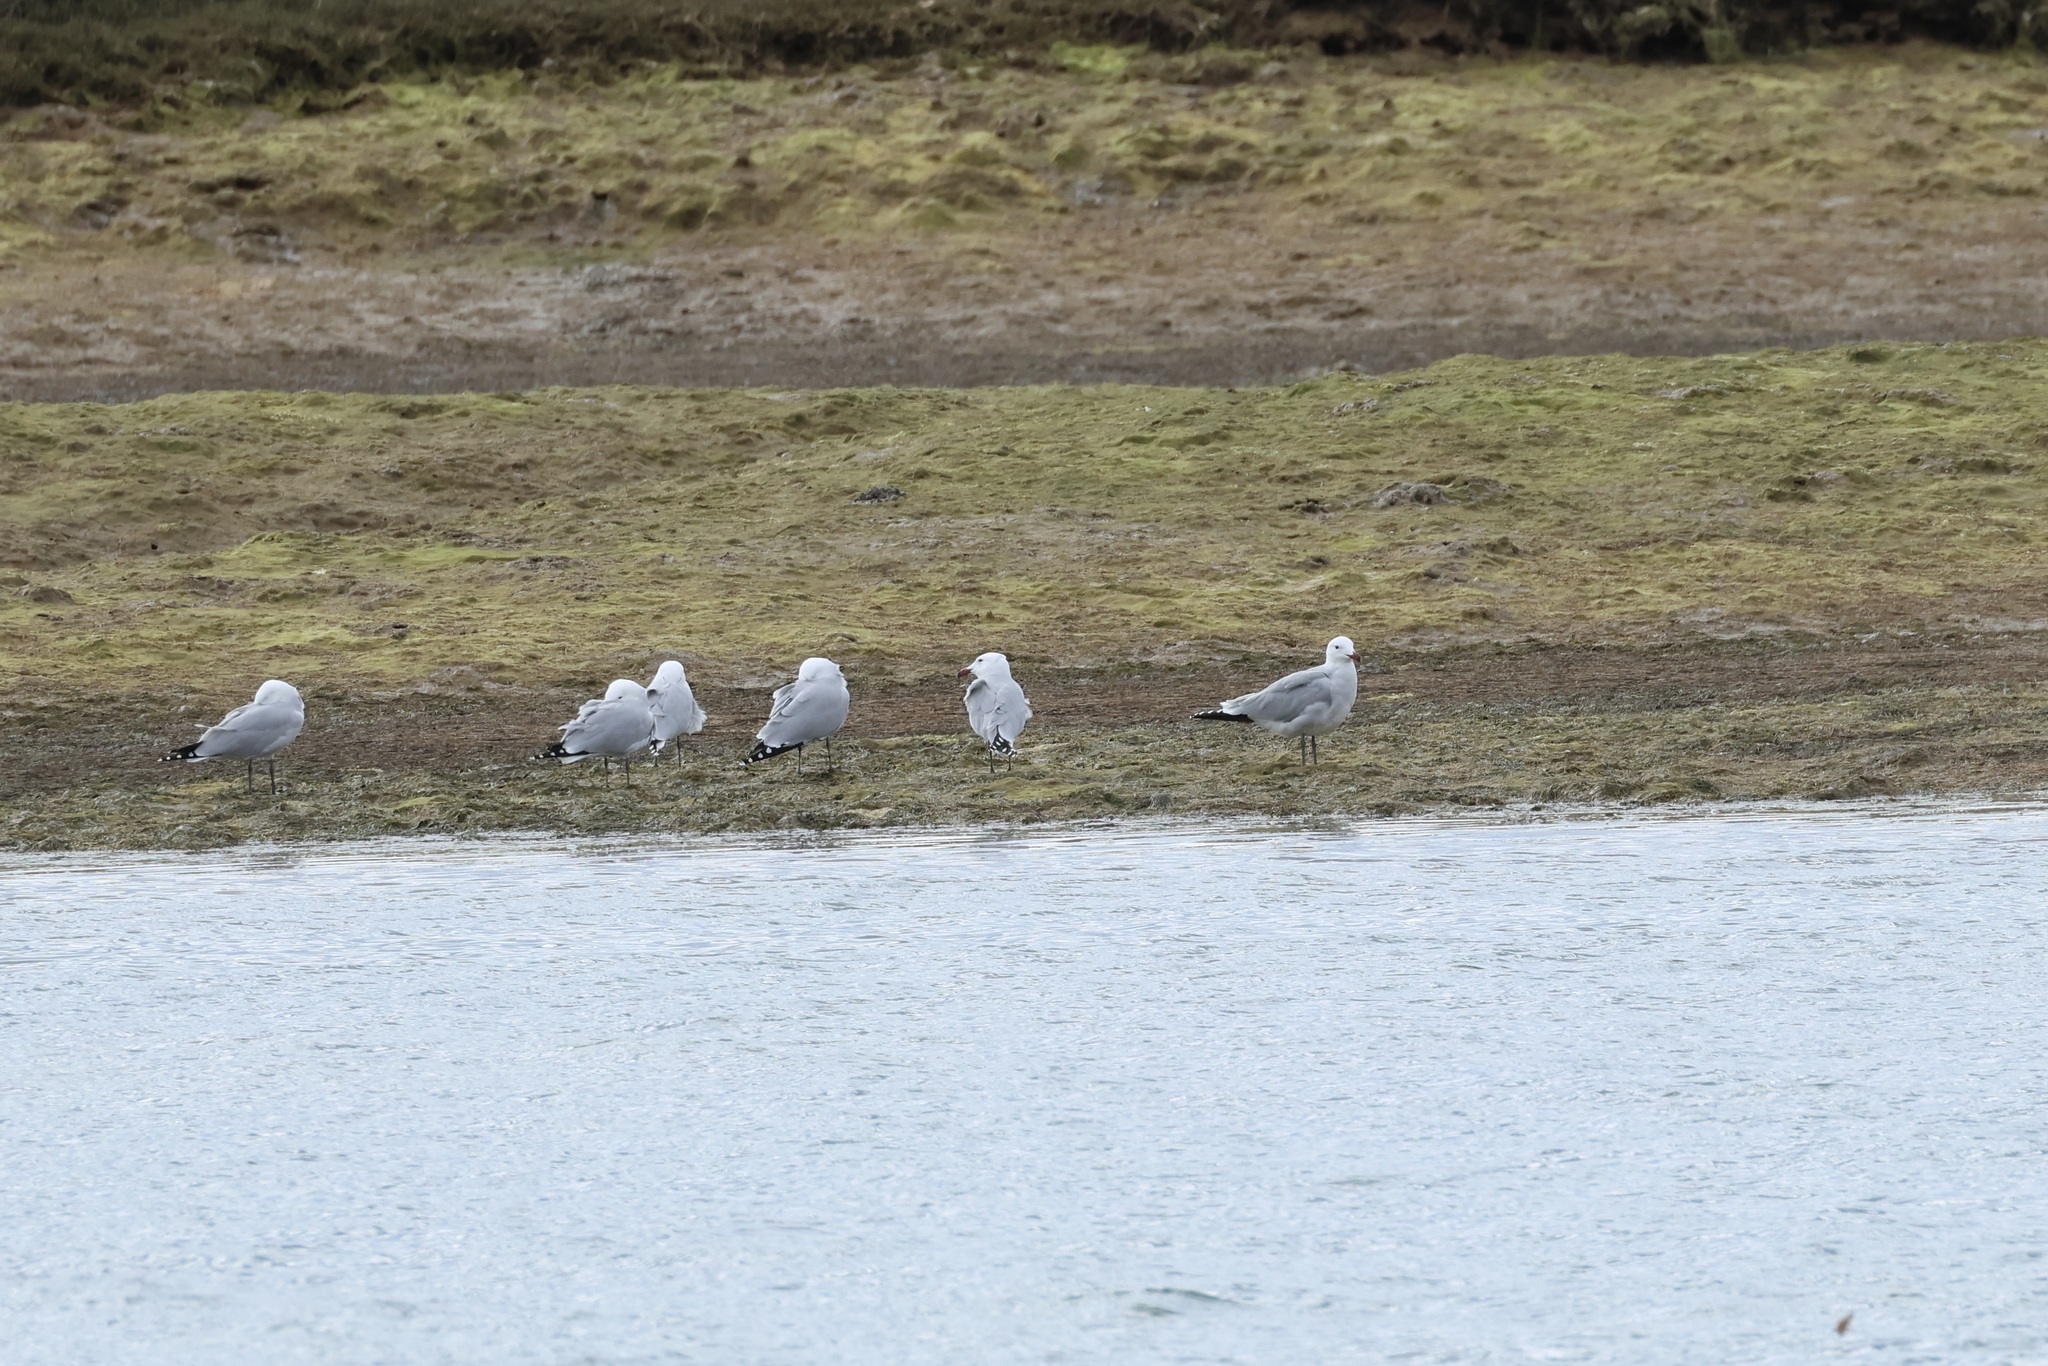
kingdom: Animalia
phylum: Chordata
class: Aves
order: Charadriiformes
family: Laridae
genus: Ichthyaetus
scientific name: Ichthyaetus audouinii
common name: Audouin's gull
